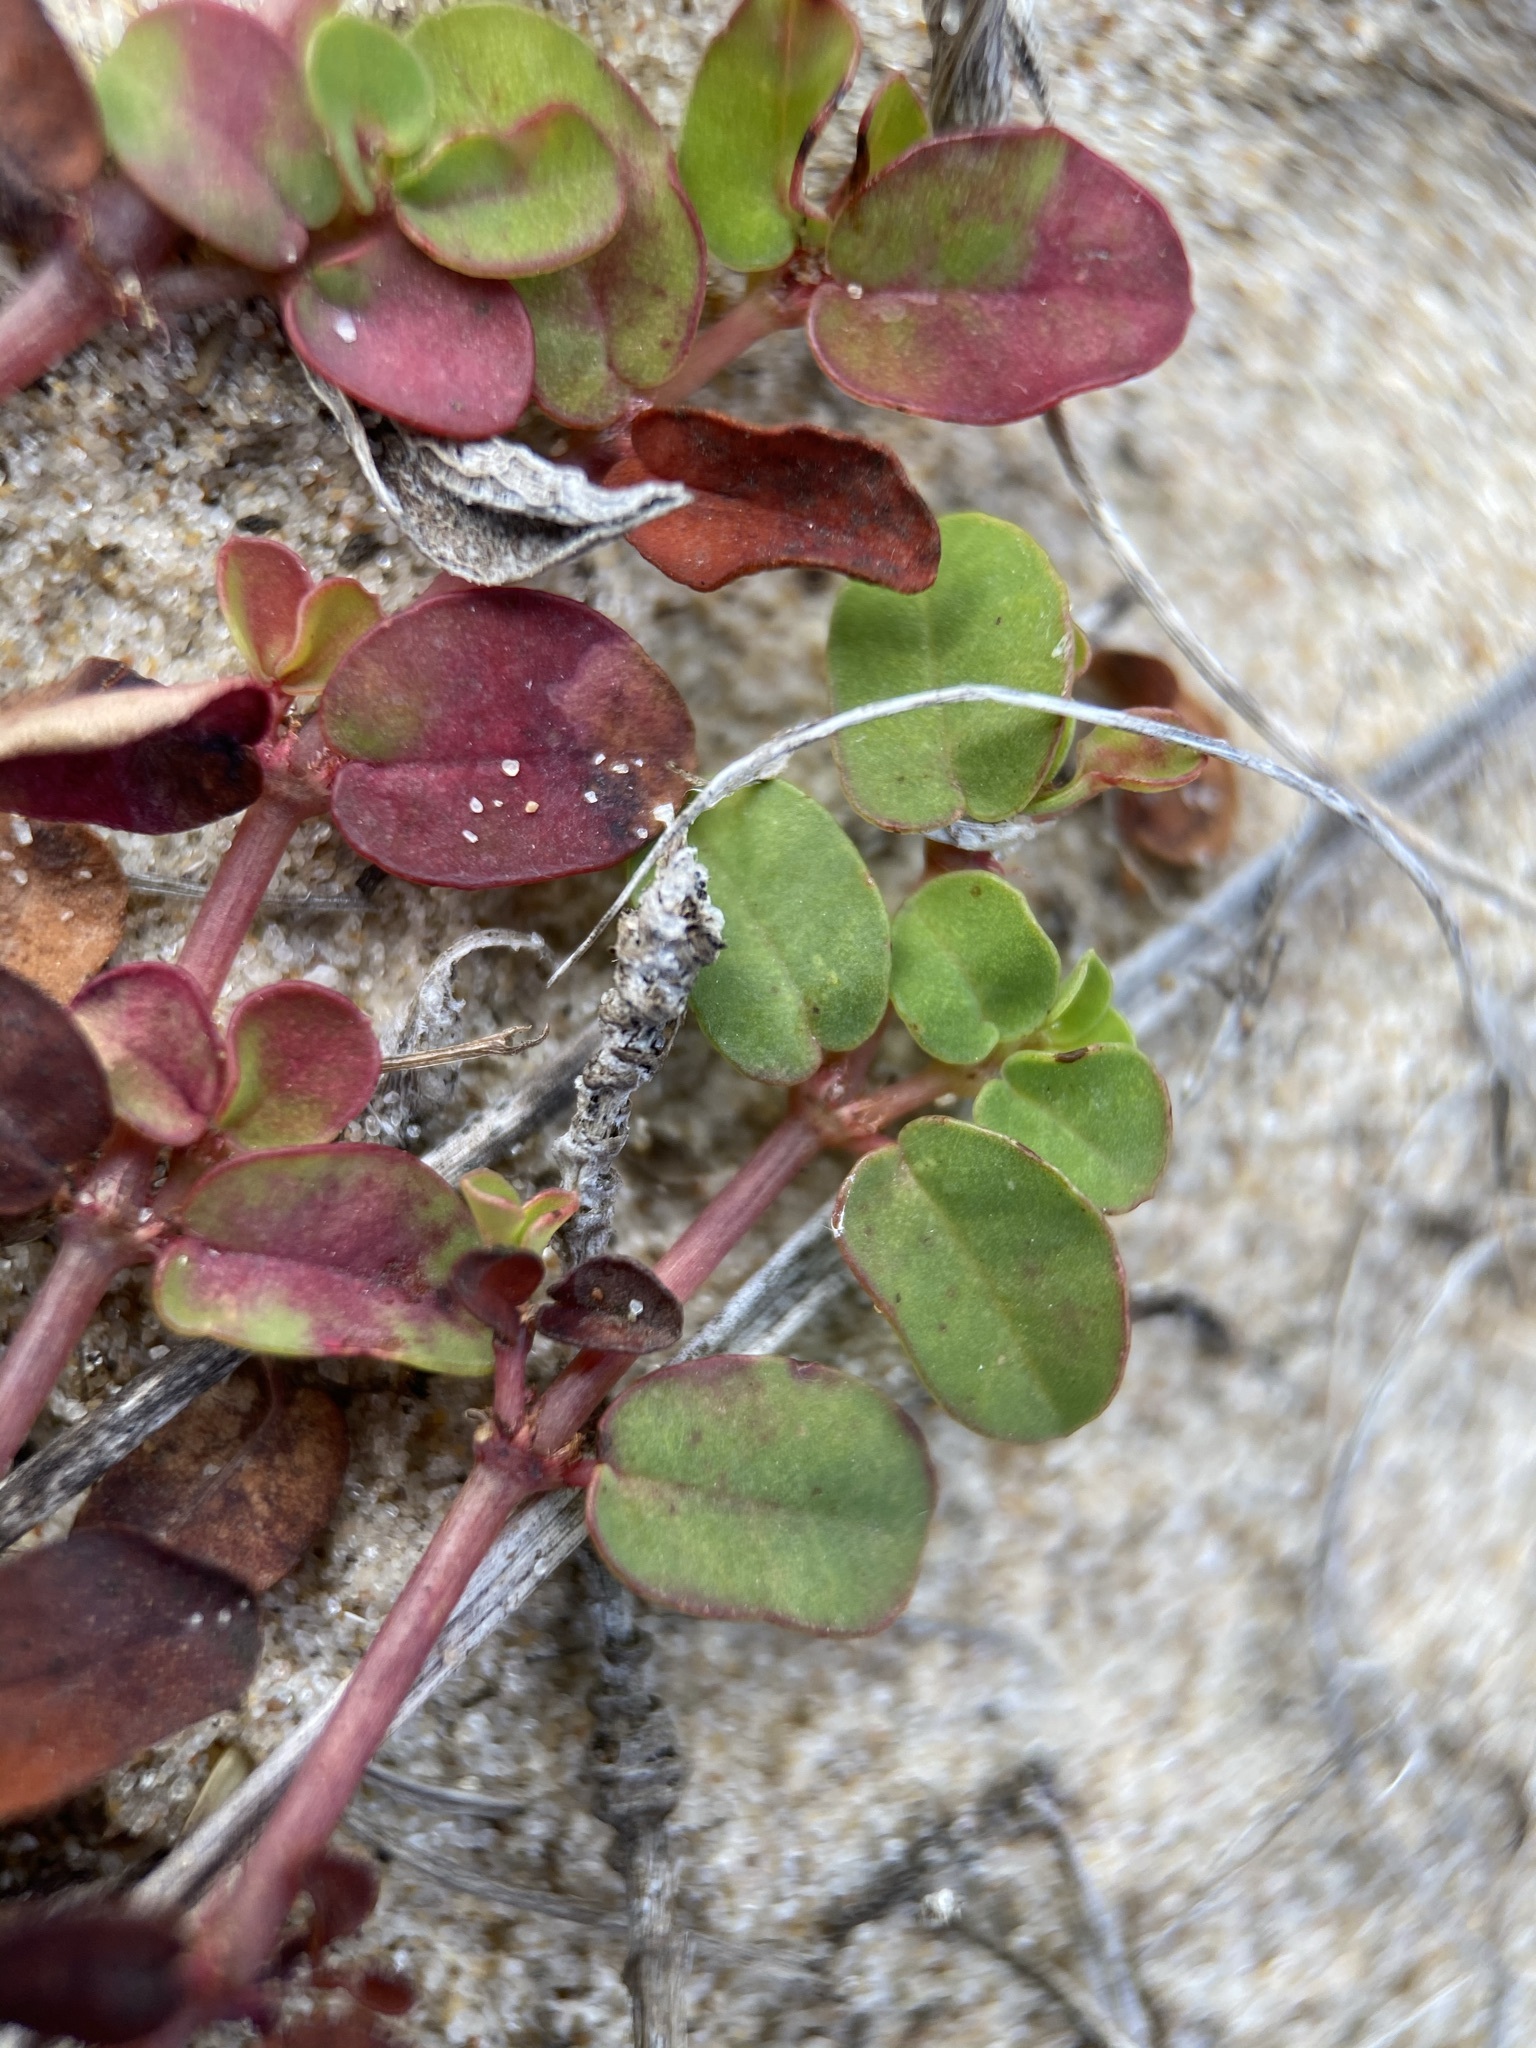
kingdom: Plantae
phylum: Tracheophyta
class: Magnoliopsida
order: Malpighiales
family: Euphorbiaceae
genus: Euphorbia
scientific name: Euphorbia cordifolia
